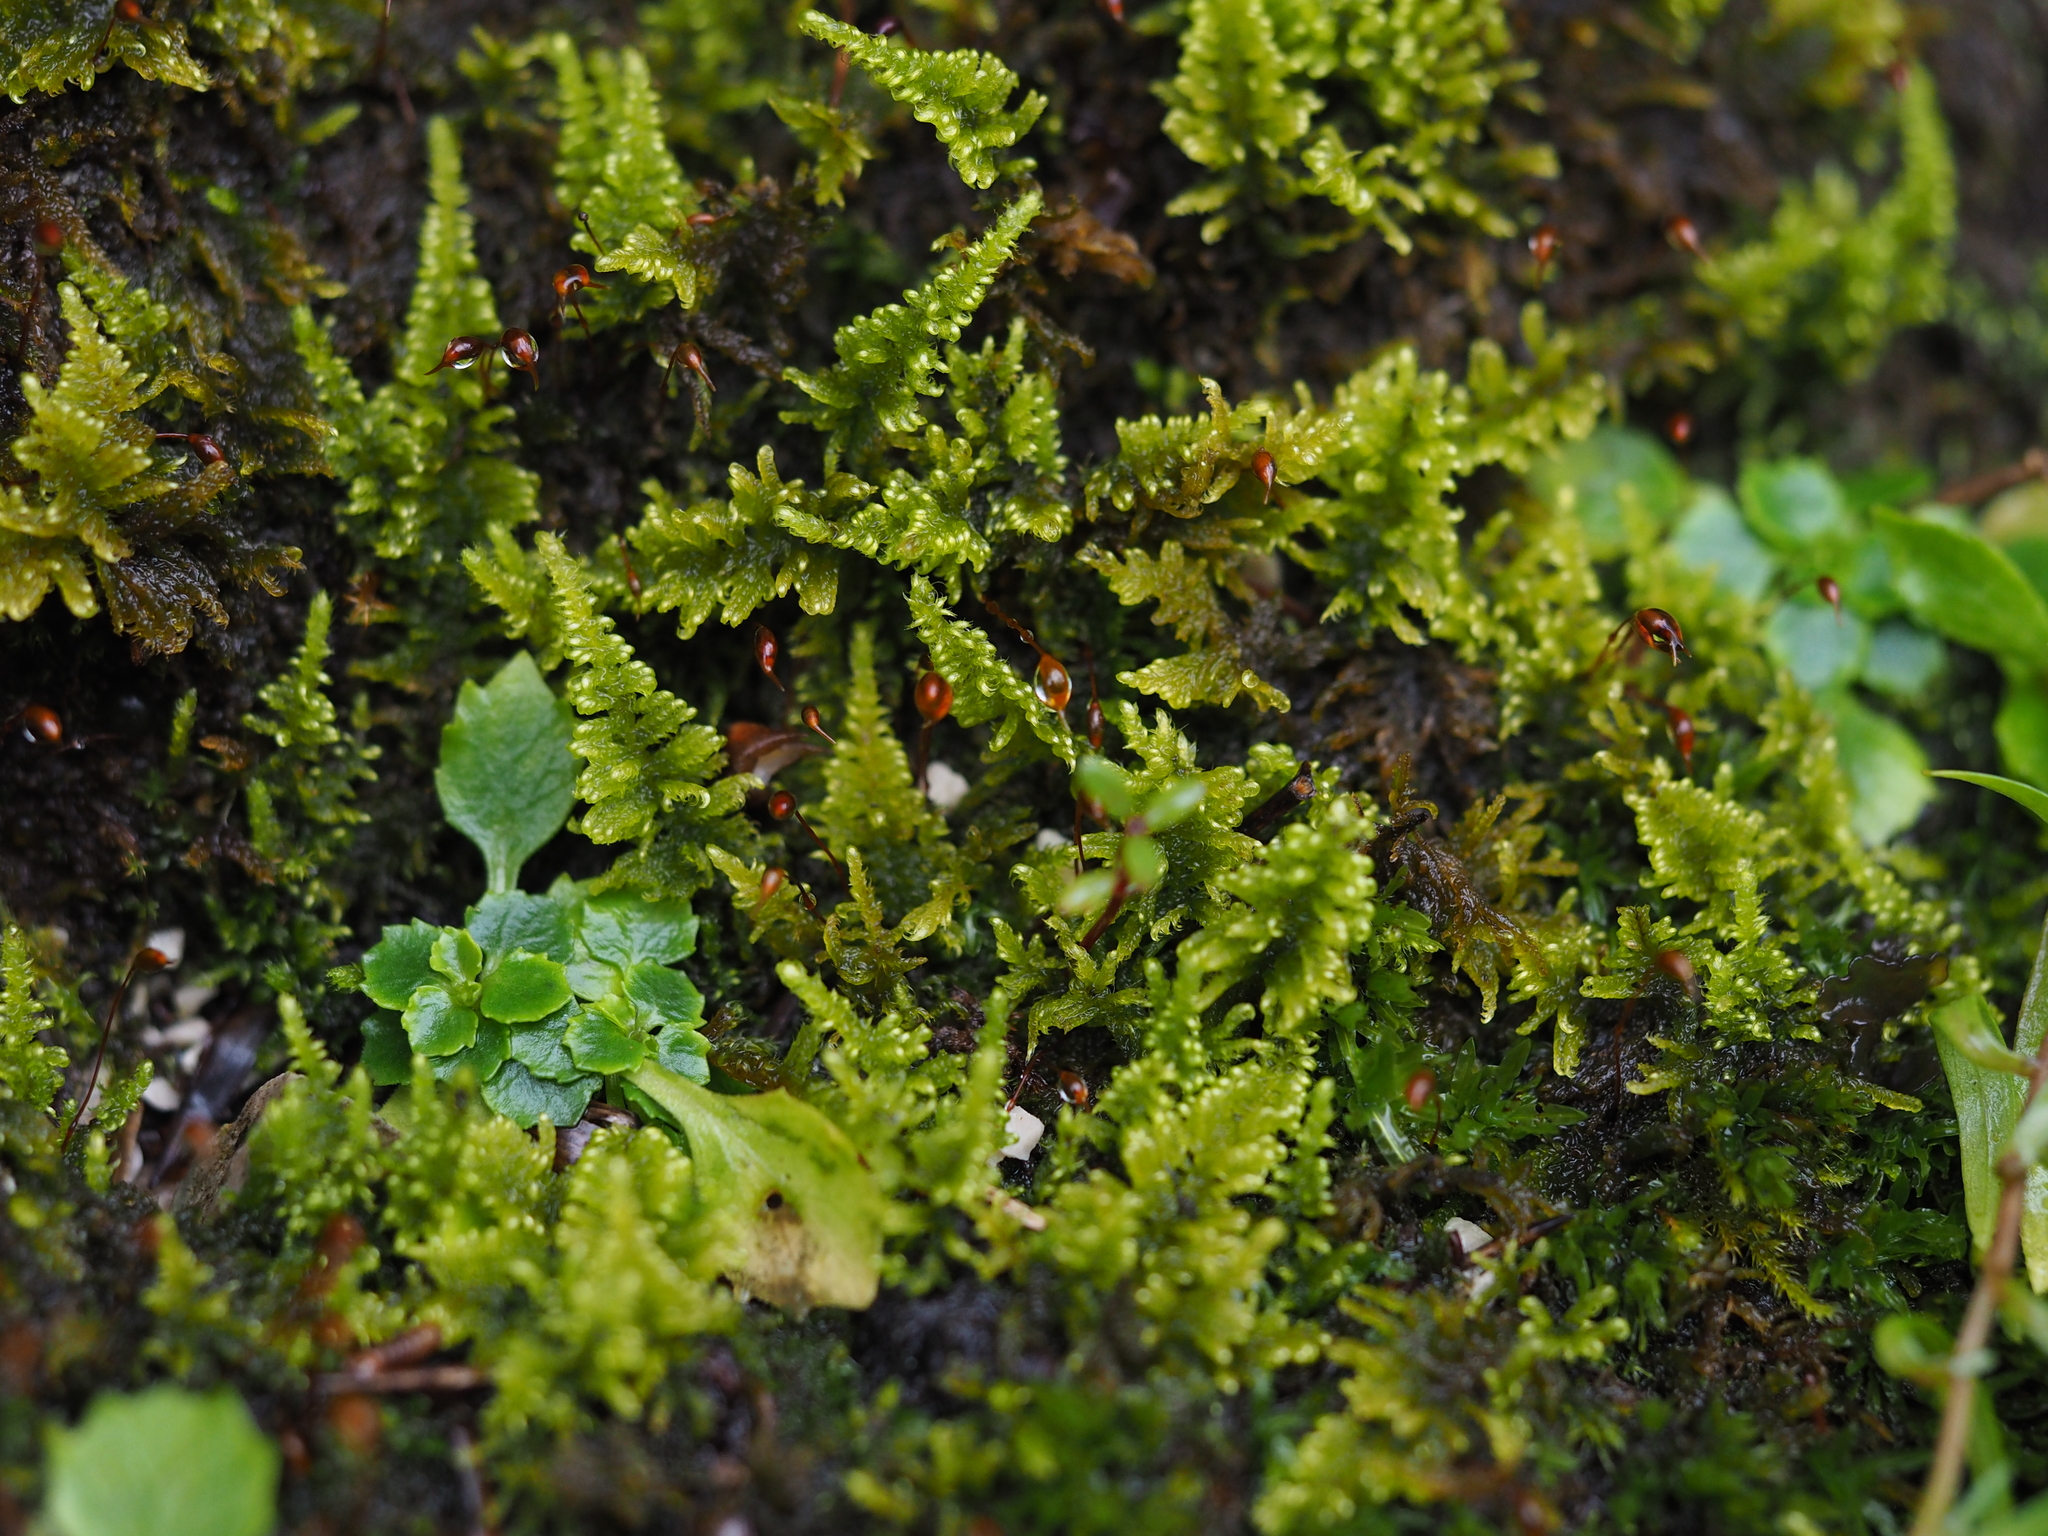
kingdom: Plantae
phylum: Bryophyta
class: Bryopsida
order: Hypnales
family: Myuriaceae
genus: Ctenidium
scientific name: Ctenidium molluscum
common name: Chalk comb-moss
